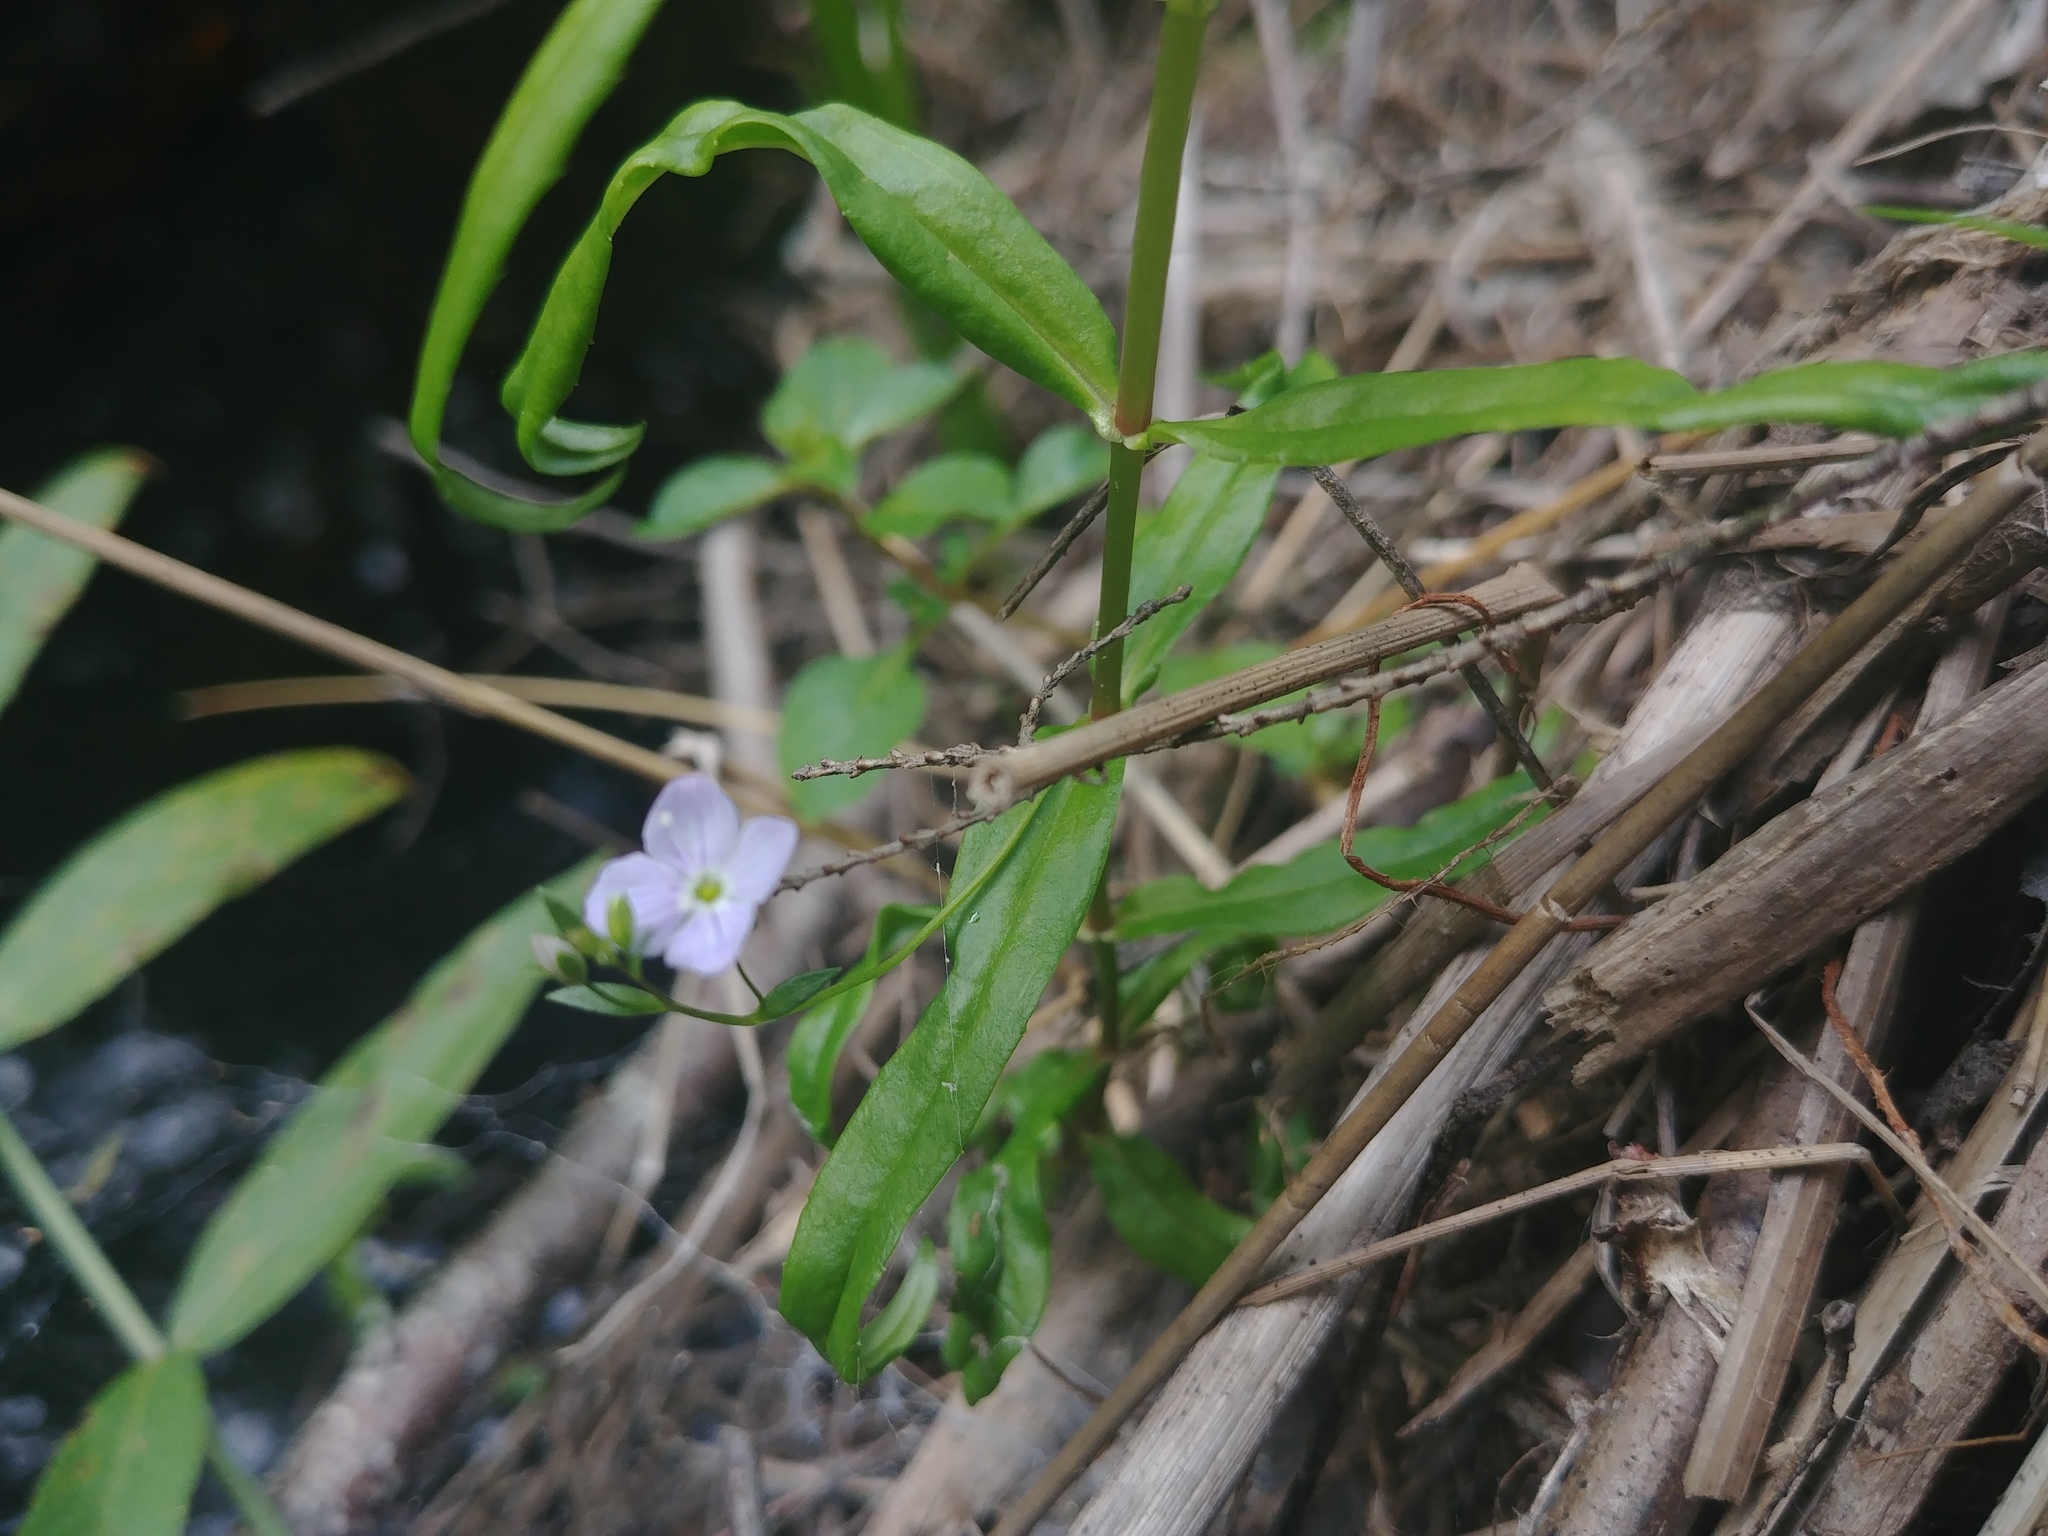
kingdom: Plantae
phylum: Tracheophyta
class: Magnoliopsida
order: Lamiales
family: Plantaginaceae
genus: Veronica
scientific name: Veronica scutellata
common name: Marsh speedwell
